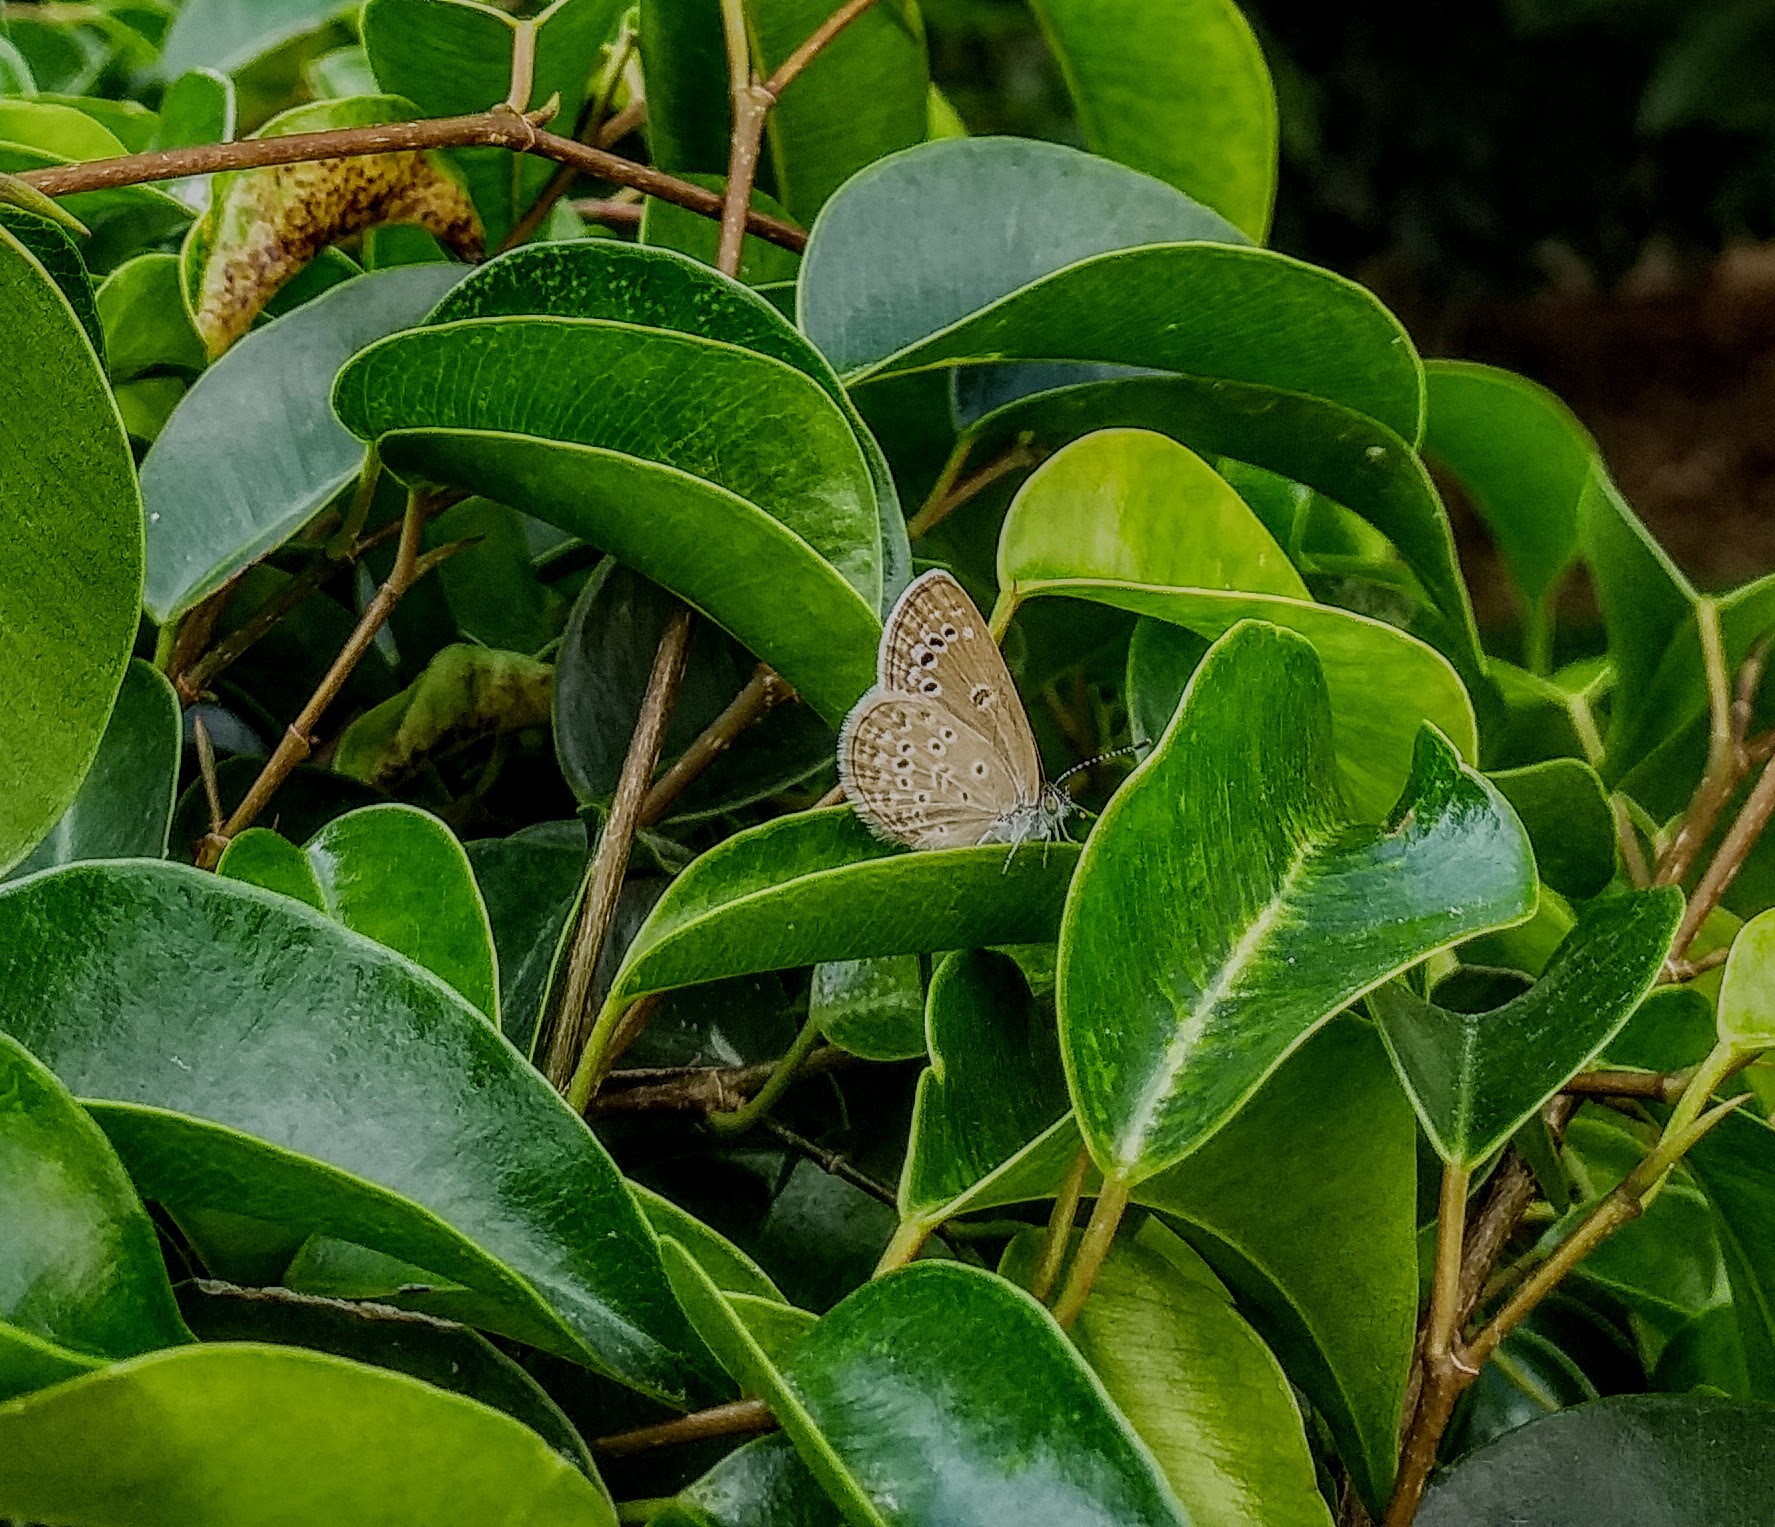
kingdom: Animalia
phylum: Arthropoda
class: Insecta
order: Lepidoptera
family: Lycaenidae
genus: Zizina
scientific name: Zizina otis
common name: Lesser grass blue
